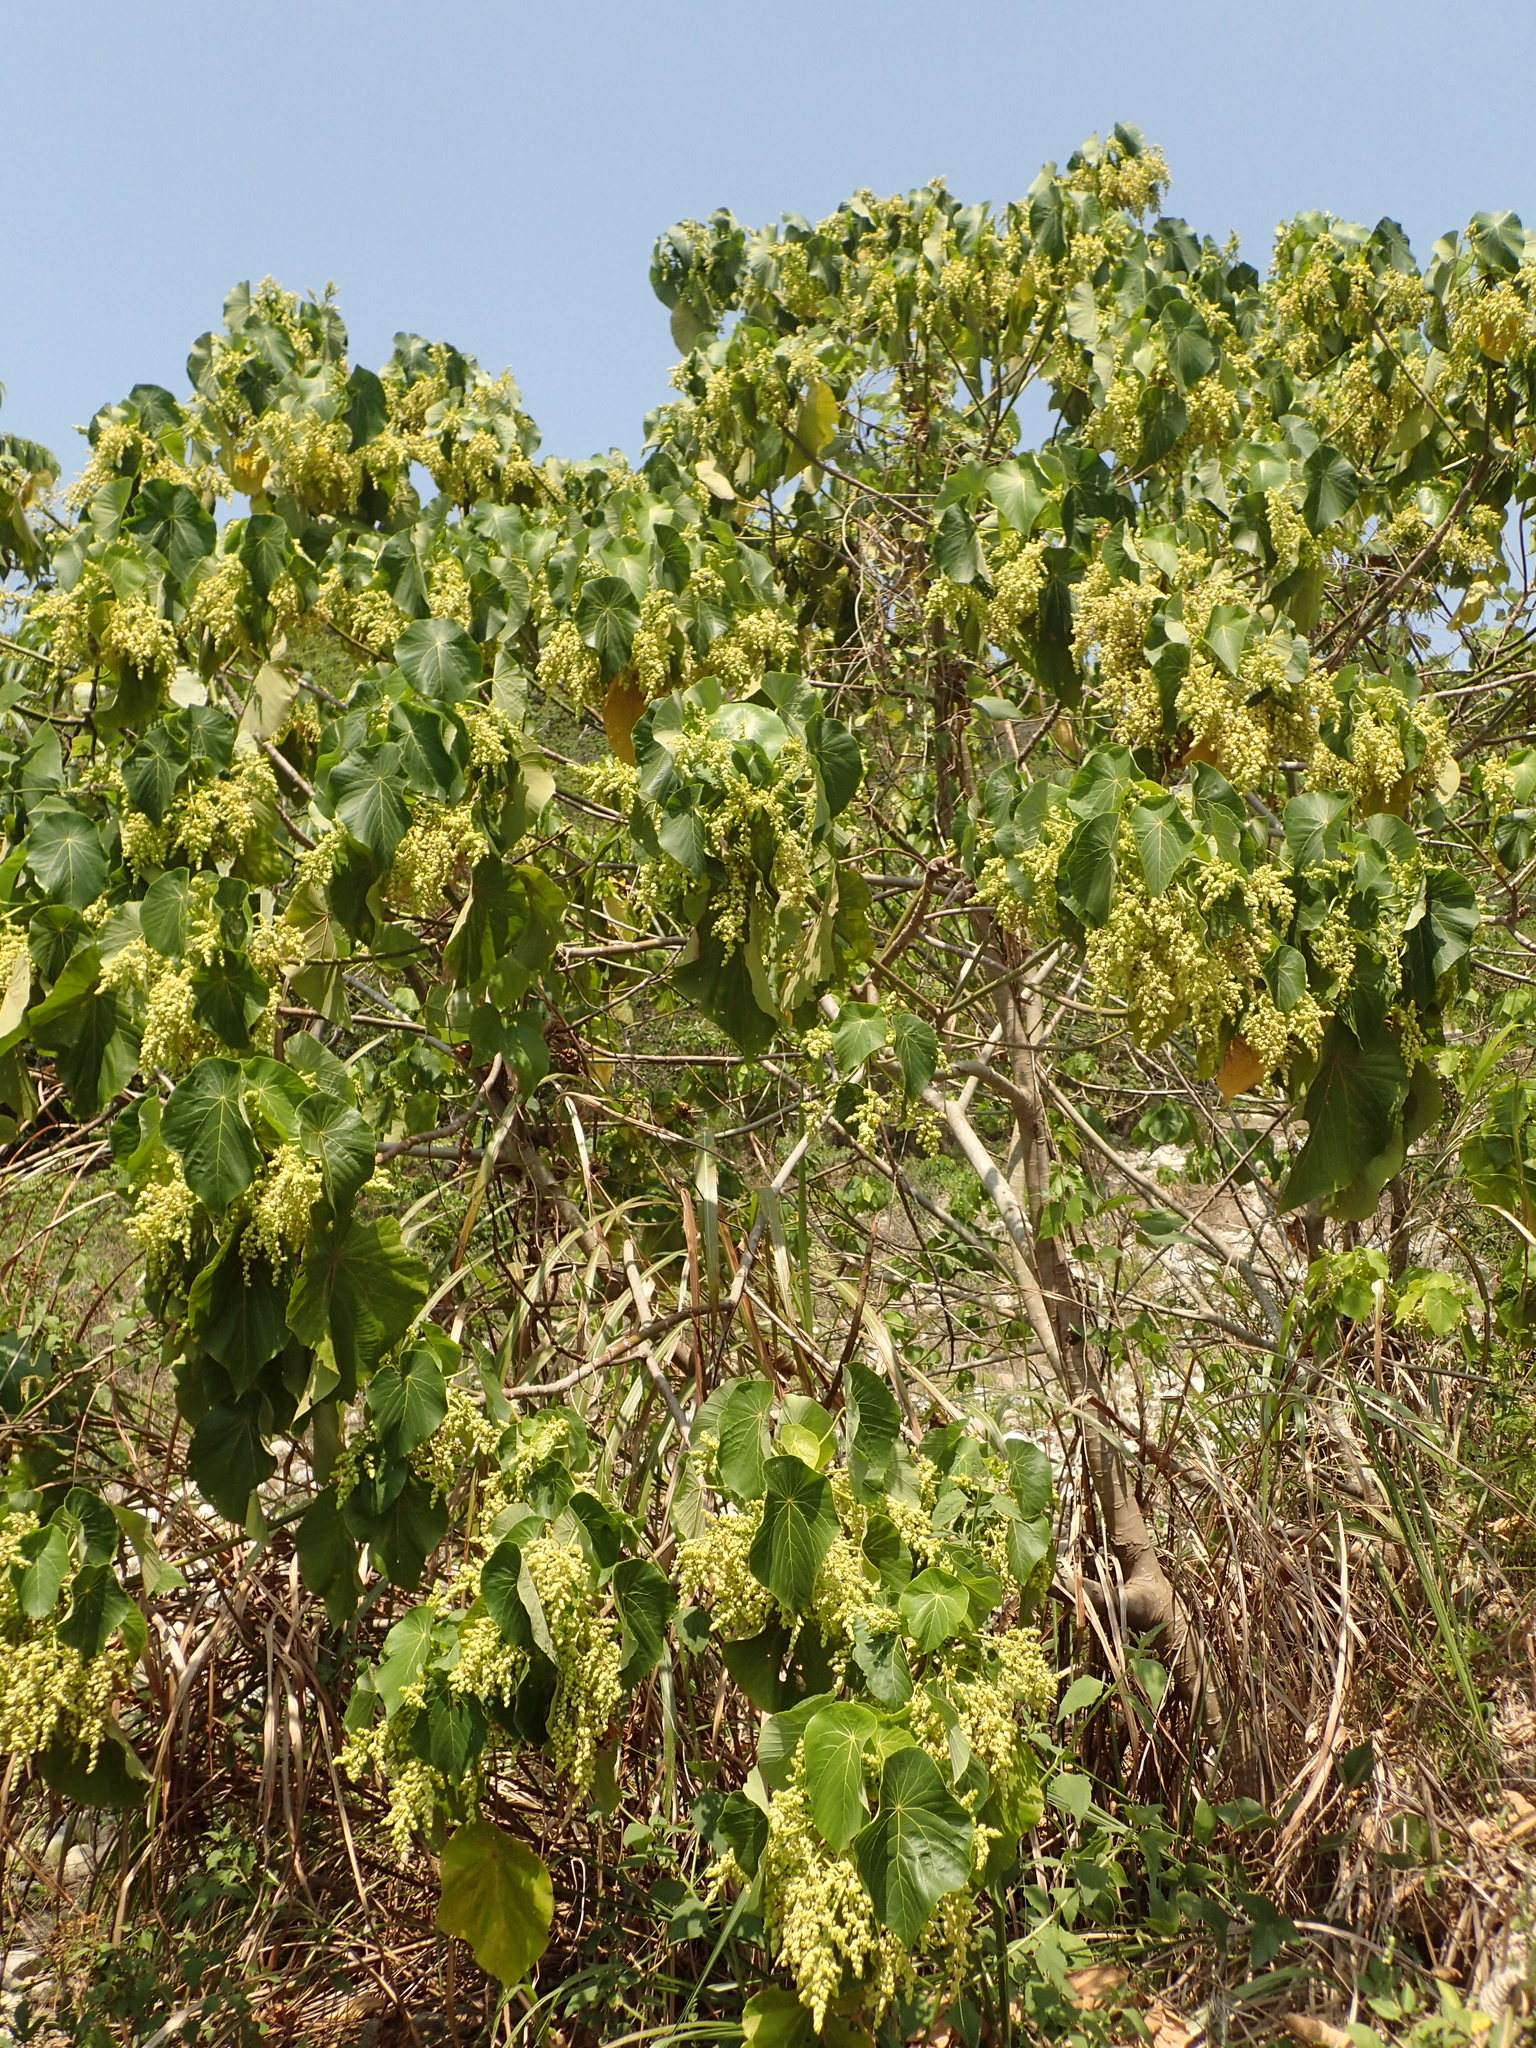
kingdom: Plantae
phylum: Tracheophyta
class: Magnoliopsida
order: Malpighiales
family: Euphorbiaceae
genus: Macaranga
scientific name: Macaranga tanarius
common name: Parasol leaf tree
